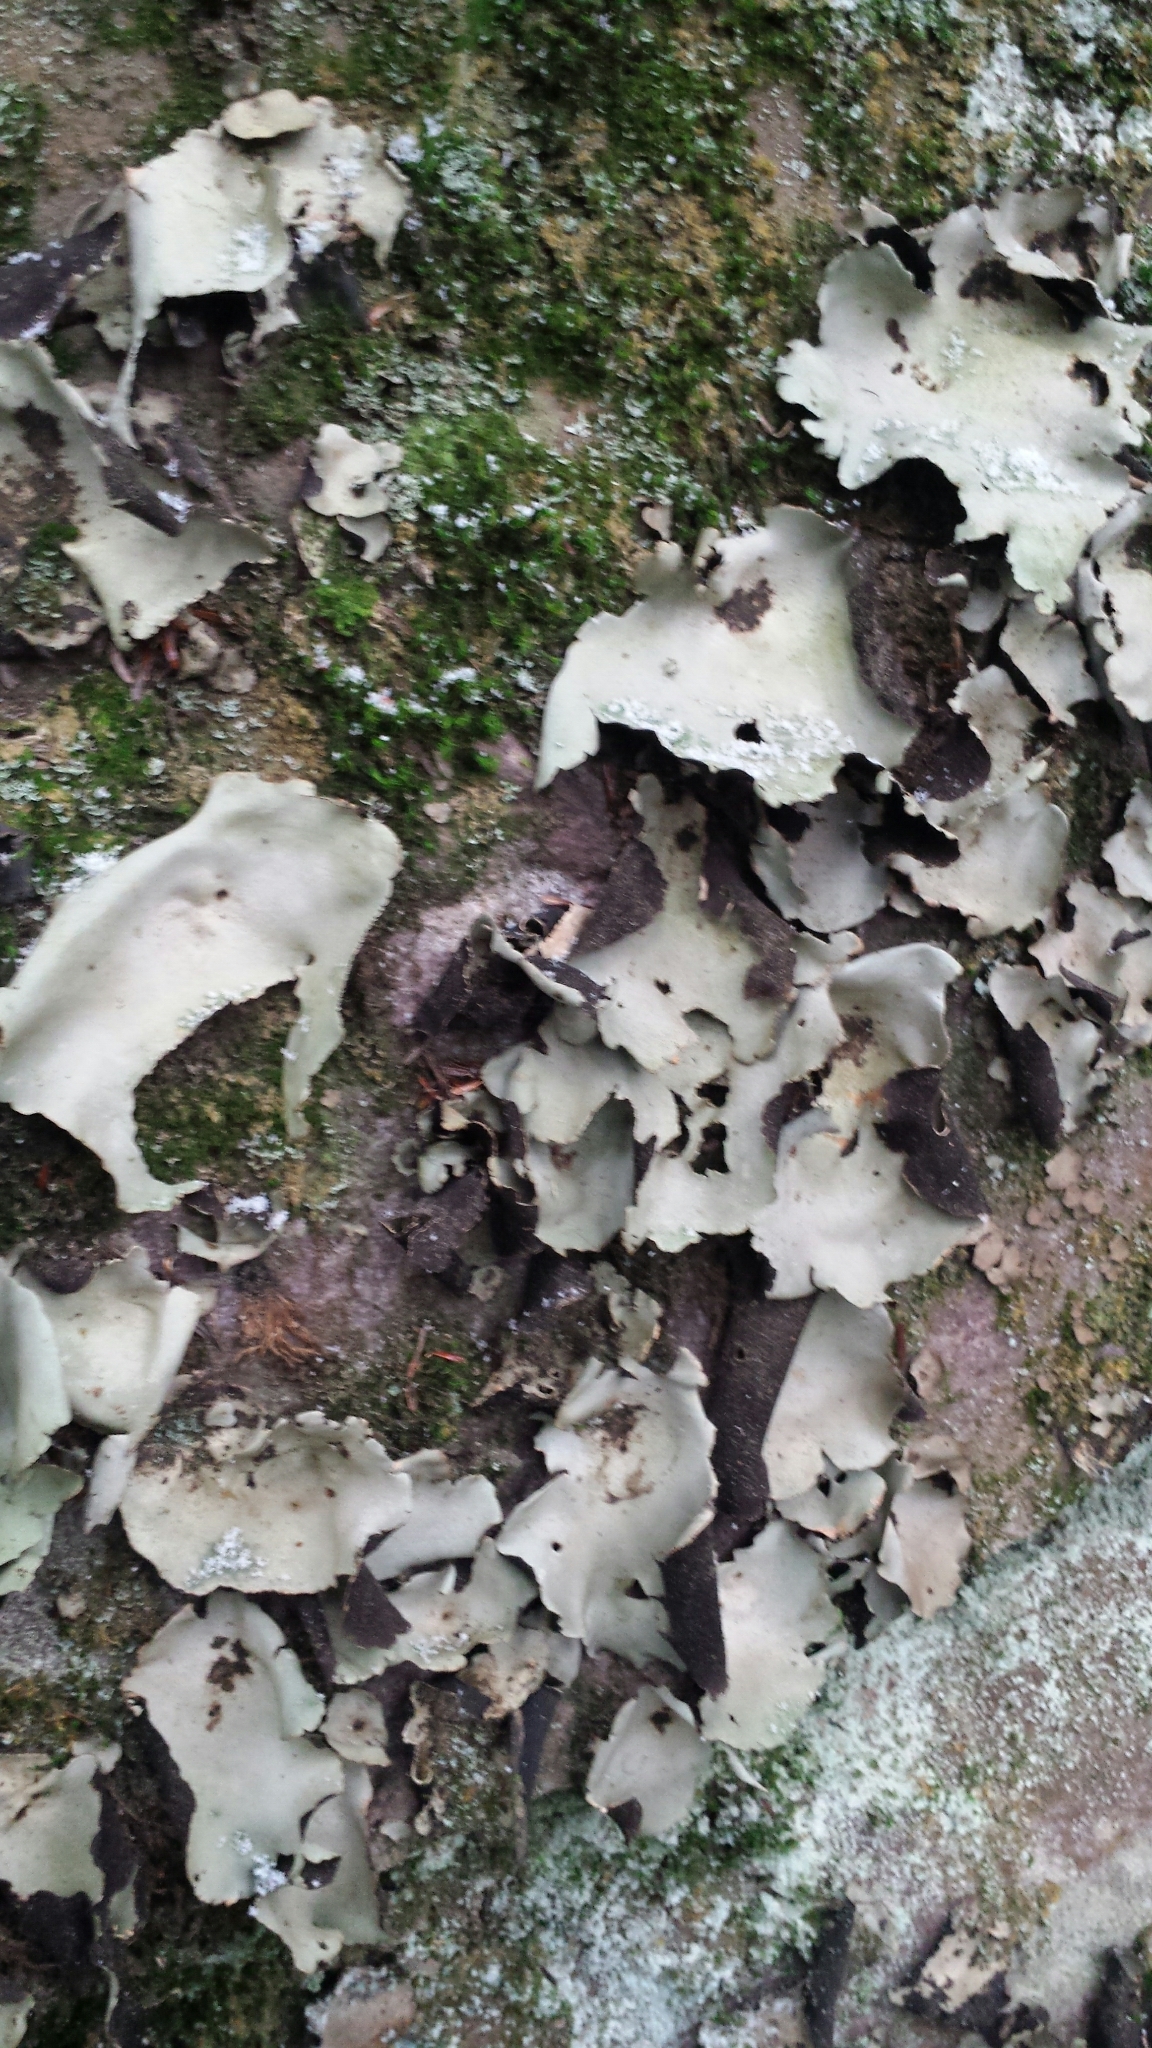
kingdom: Fungi
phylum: Ascomycota
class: Lecanoromycetes
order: Umbilicariales
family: Umbilicariaceae
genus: Umbilicaria
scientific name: Umbilicaria mammulata
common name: Smooth rock tripe
